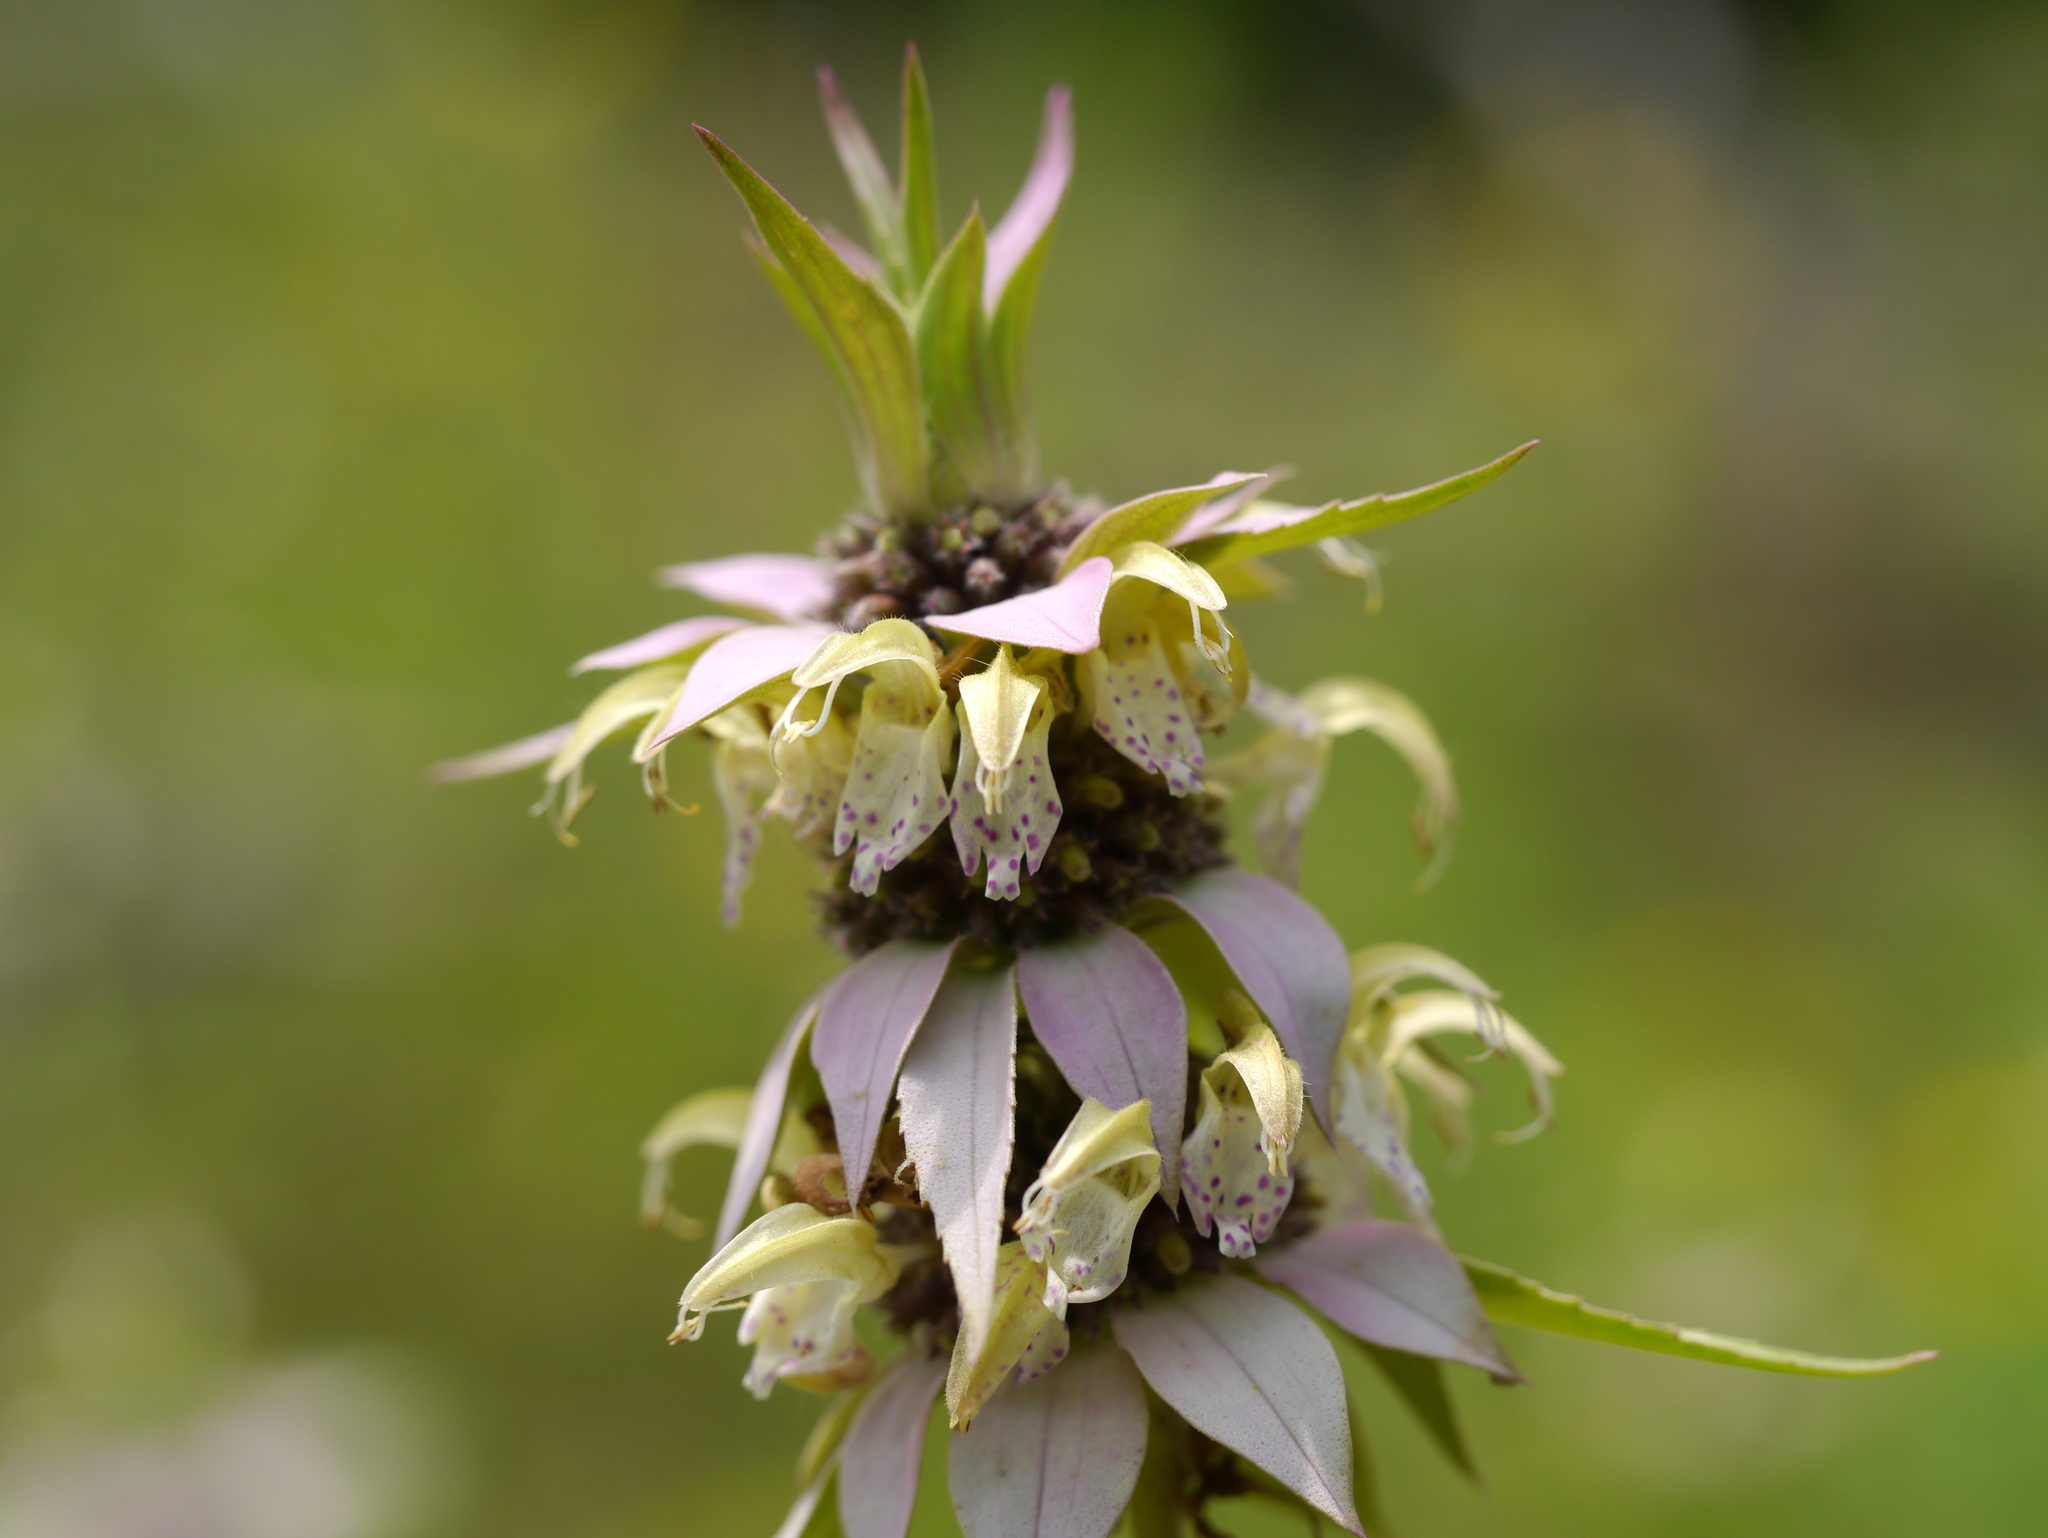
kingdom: Plantae
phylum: Tracheophyta
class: Magnoliopsida
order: Lamiales
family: Lamiaceae
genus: Monarda
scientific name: Monarda punctata
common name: Dotted monarda
